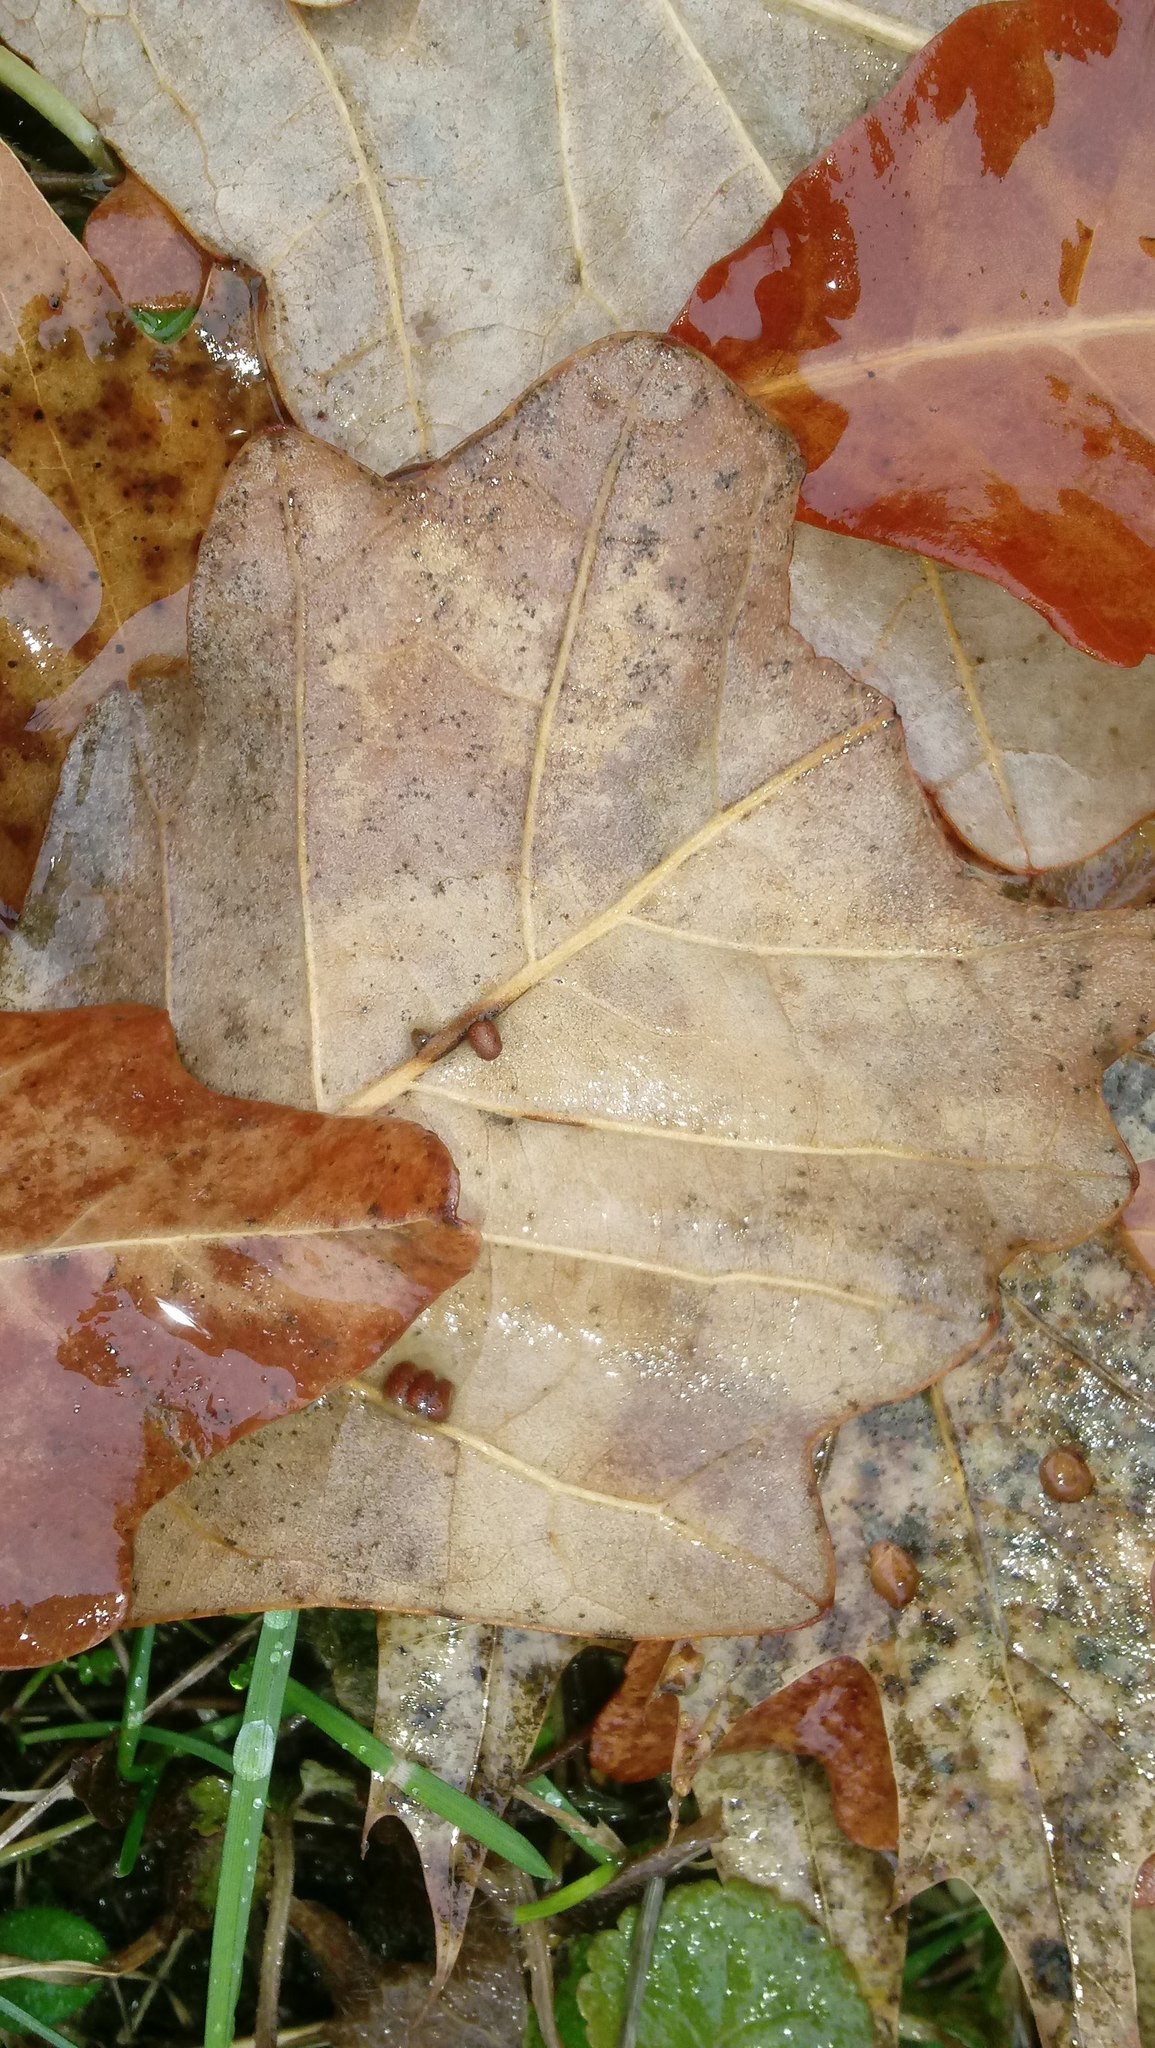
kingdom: Animalia
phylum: Arthropoda
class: Insecta
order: Hymenoptera
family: Cynipidae
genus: Andricus
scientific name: Andricus Druon ignotum
